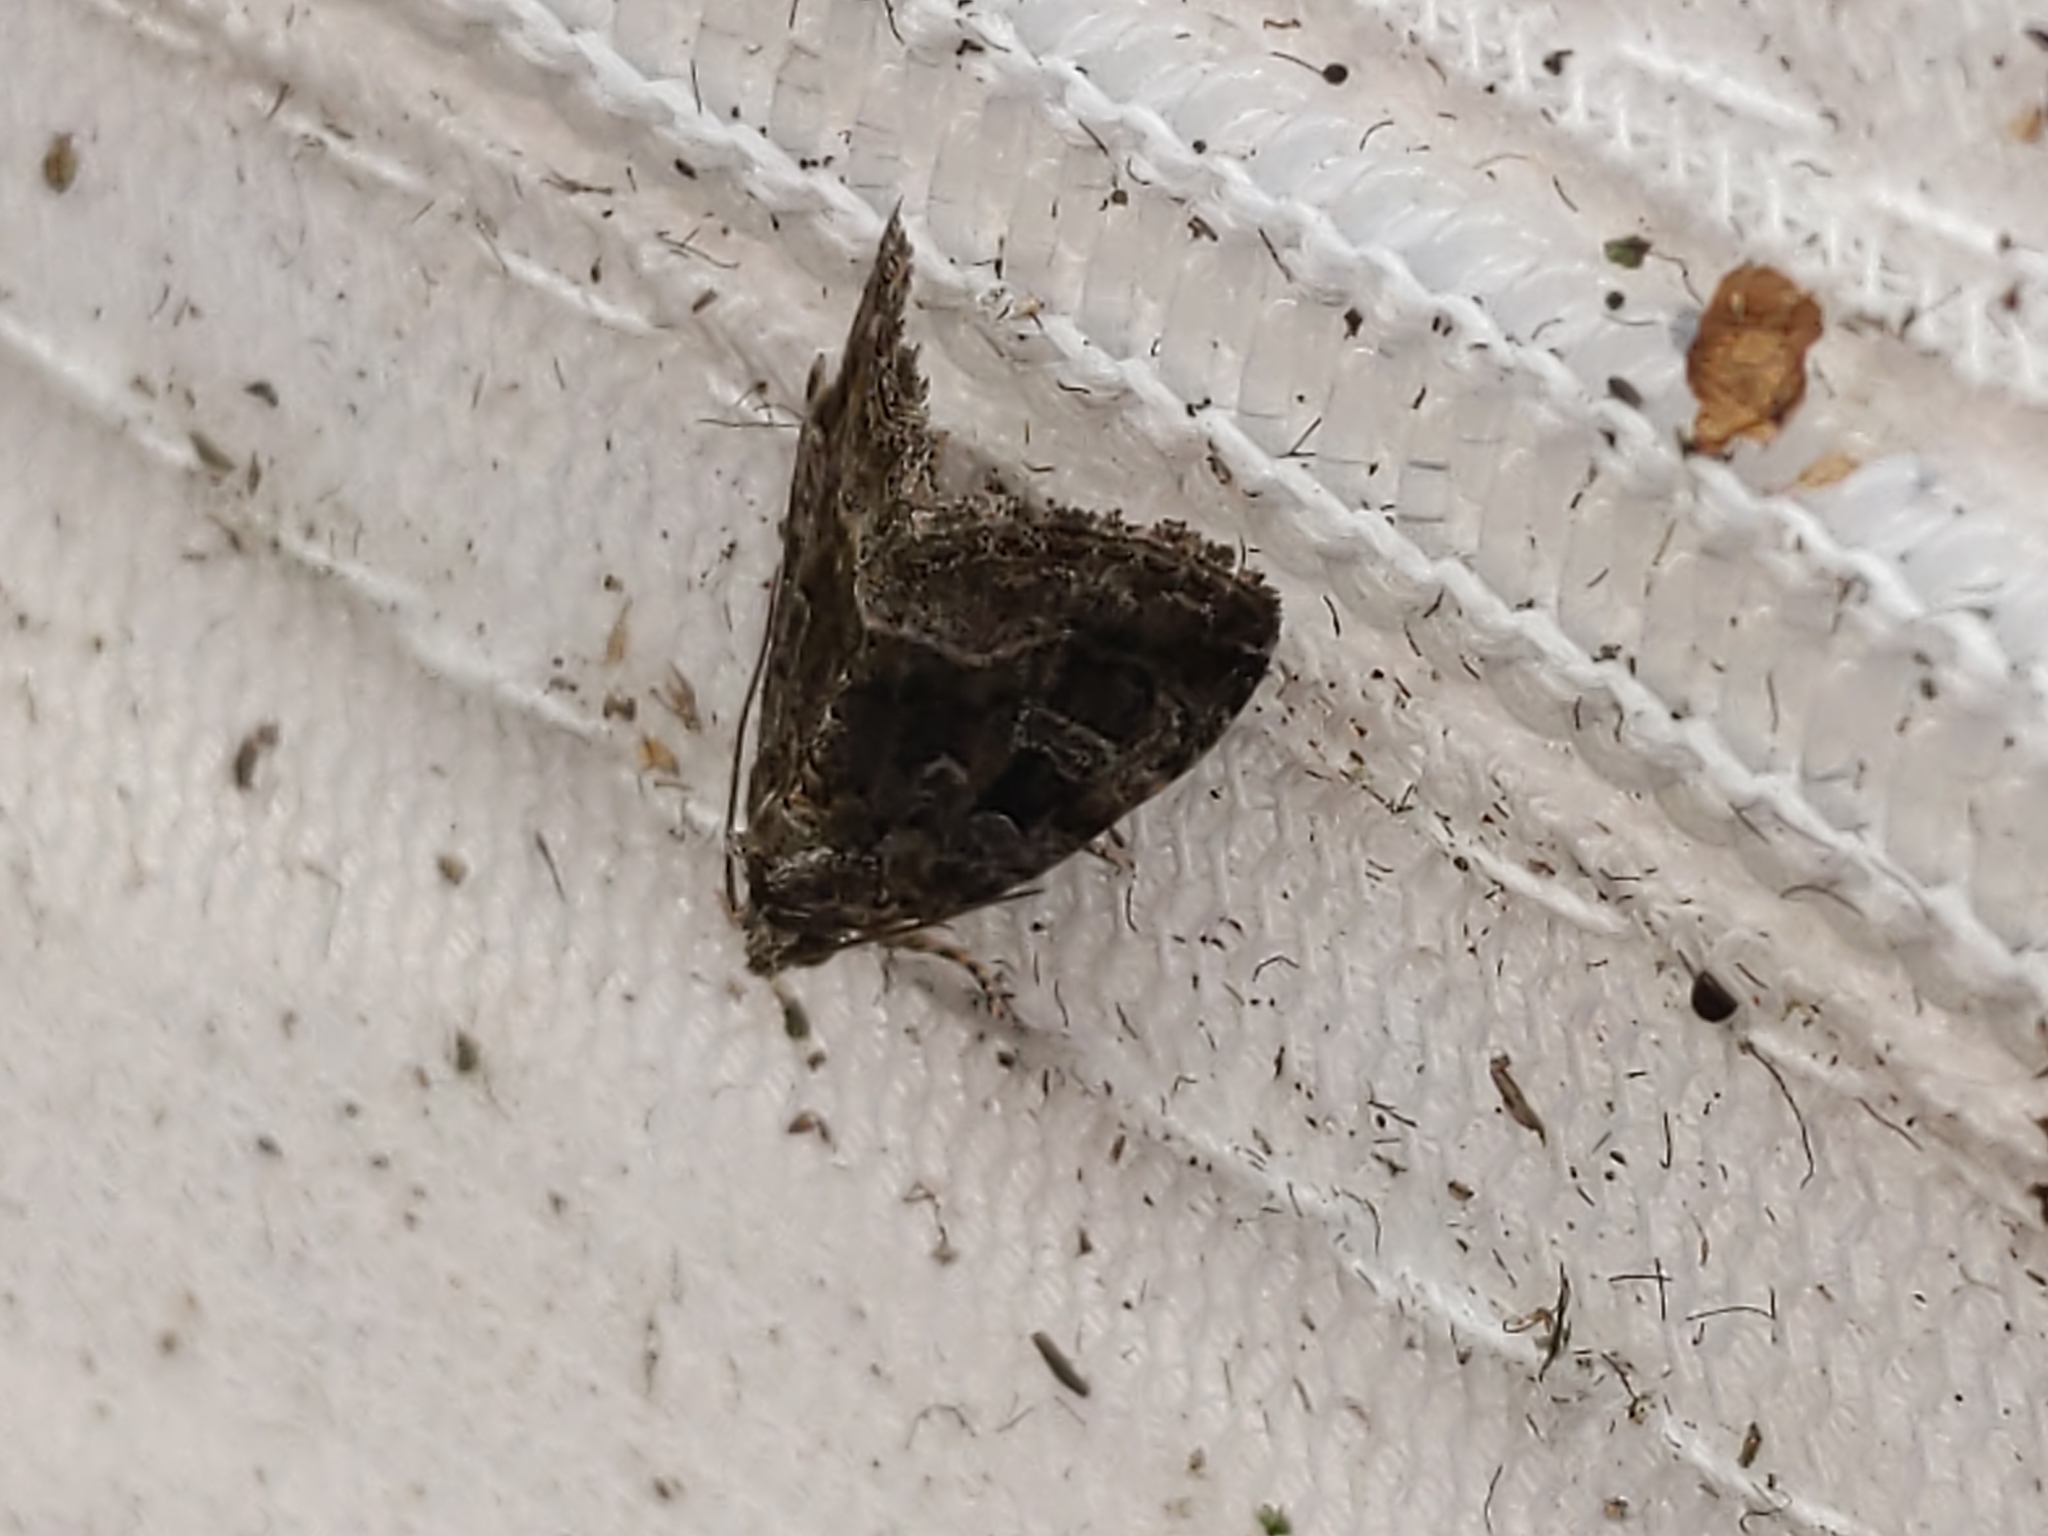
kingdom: Animalia
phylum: Arthropoda
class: Insecta
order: Lepidoptera
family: Noctuidae
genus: Protodeltote
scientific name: Protodeltote muscosula
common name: Large mossy glyph
